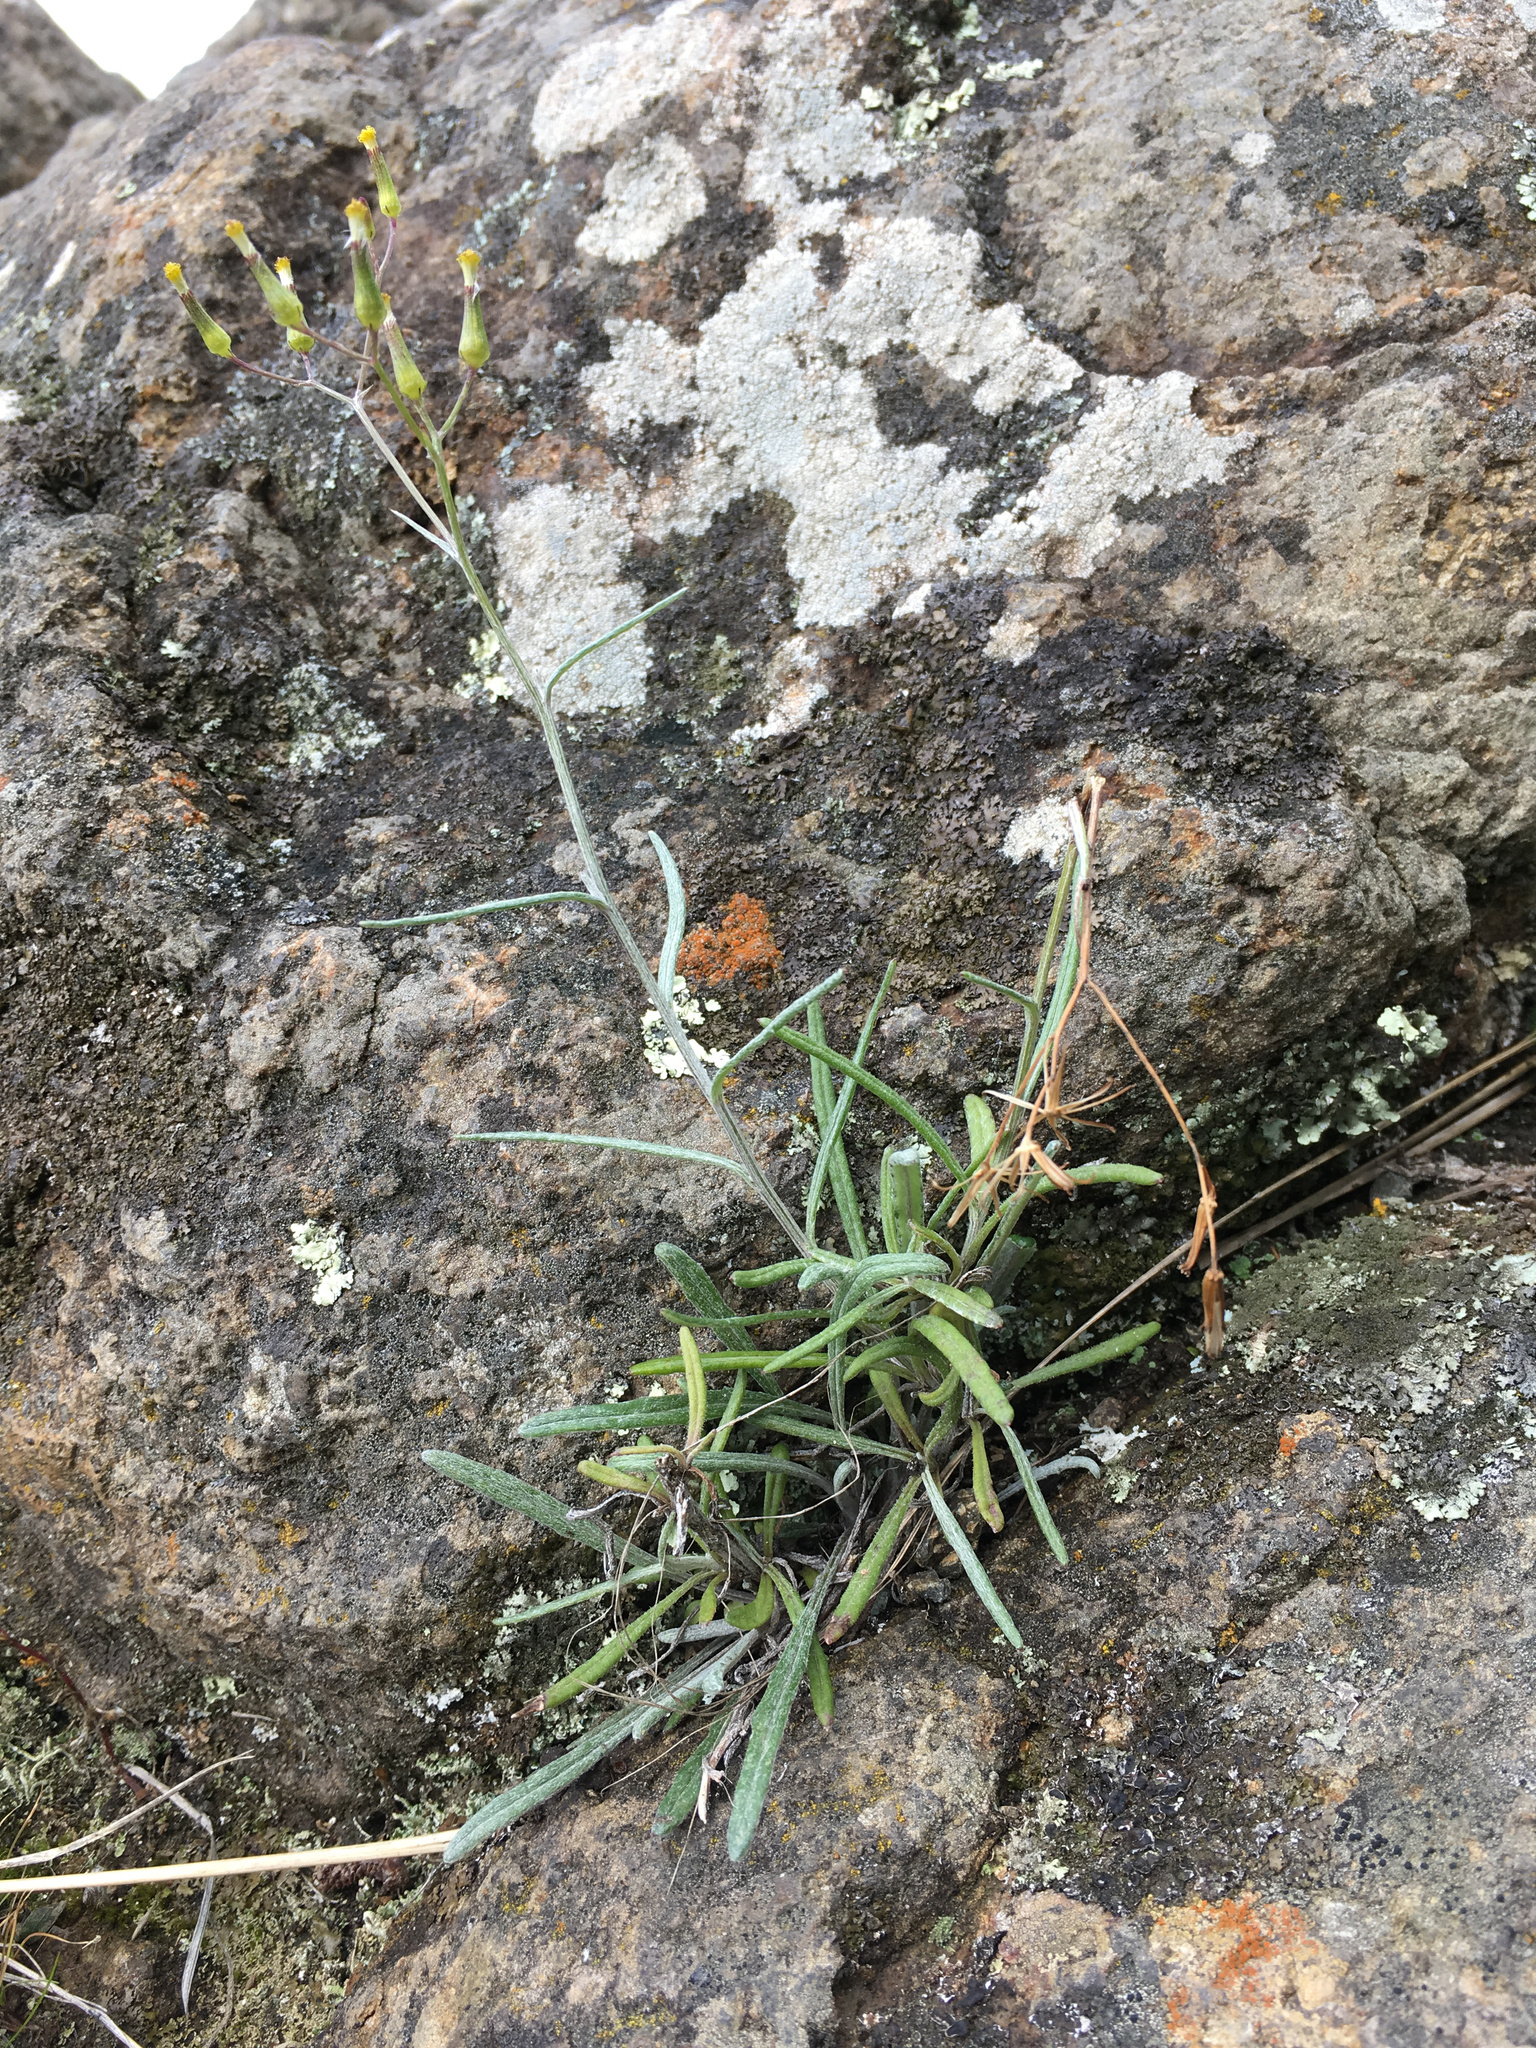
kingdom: Plantae
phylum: Tracheophyta
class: Magnoliopsida
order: Asterales
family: Asteraceae
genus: Senecio
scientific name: Senecio quadridentatus
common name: Cotton fireweed
